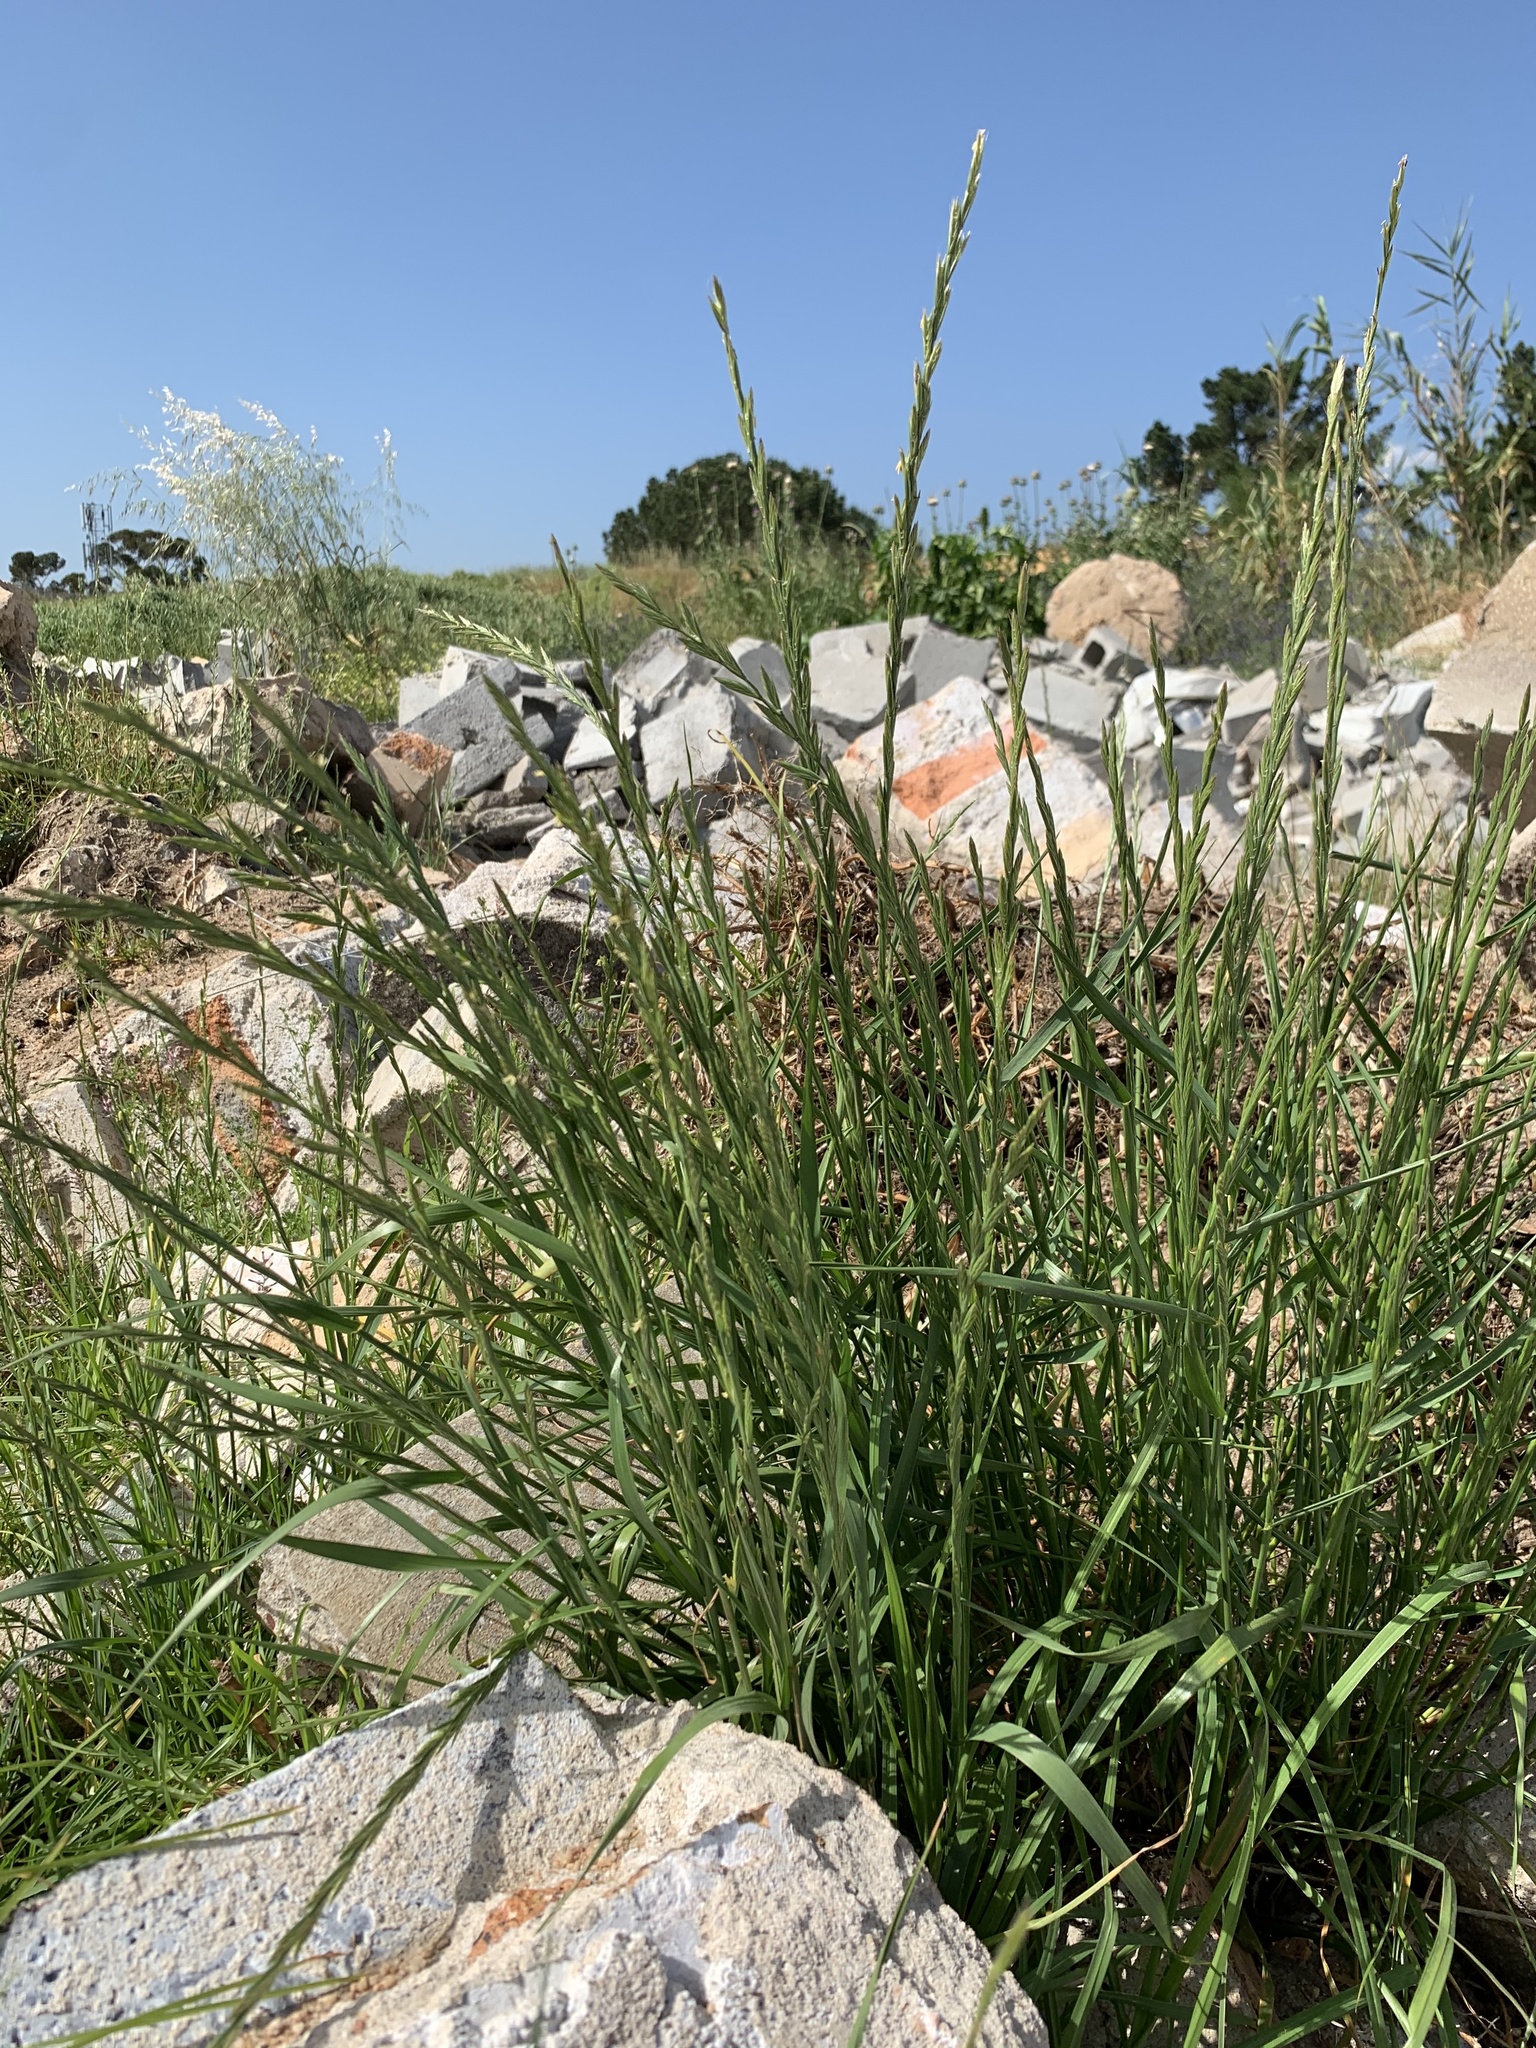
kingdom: Plantae
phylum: Tracheophyta
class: Liliopsida
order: Poales
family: Poaceae
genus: Lolium
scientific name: Lolium multiflorum
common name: Annual ryegrass
